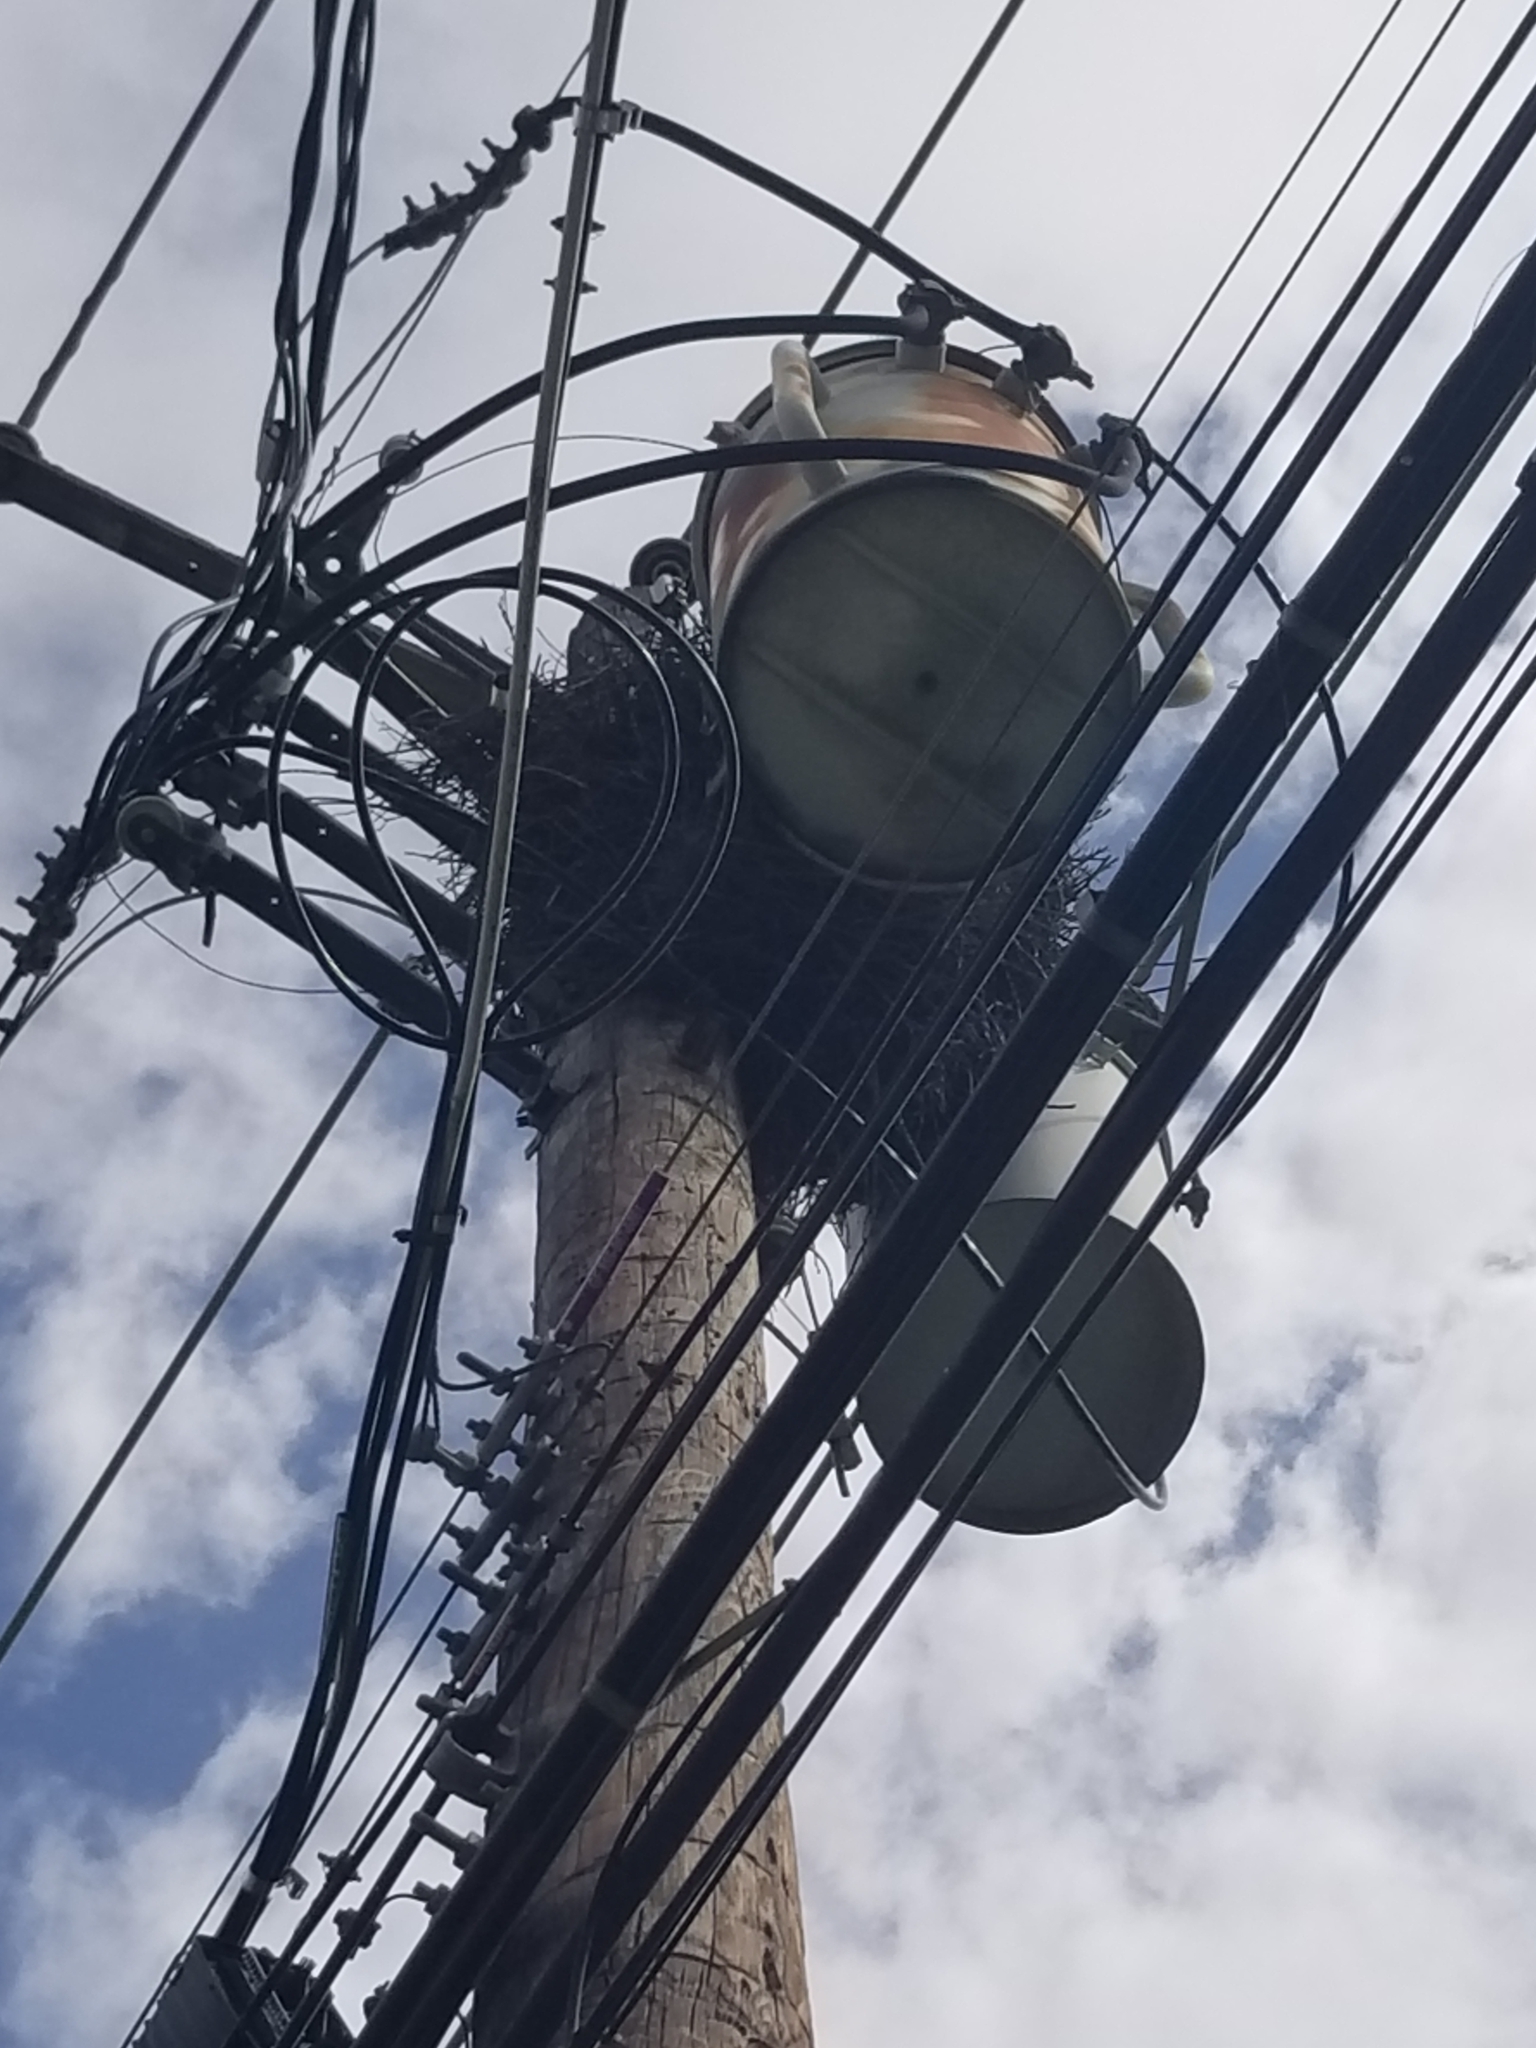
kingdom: Animalia
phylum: Chordata
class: Aves
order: Psittaciformes
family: Psittacidae
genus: Myiopsitta
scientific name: Myiopsitta monachus
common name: Monk parakeet
